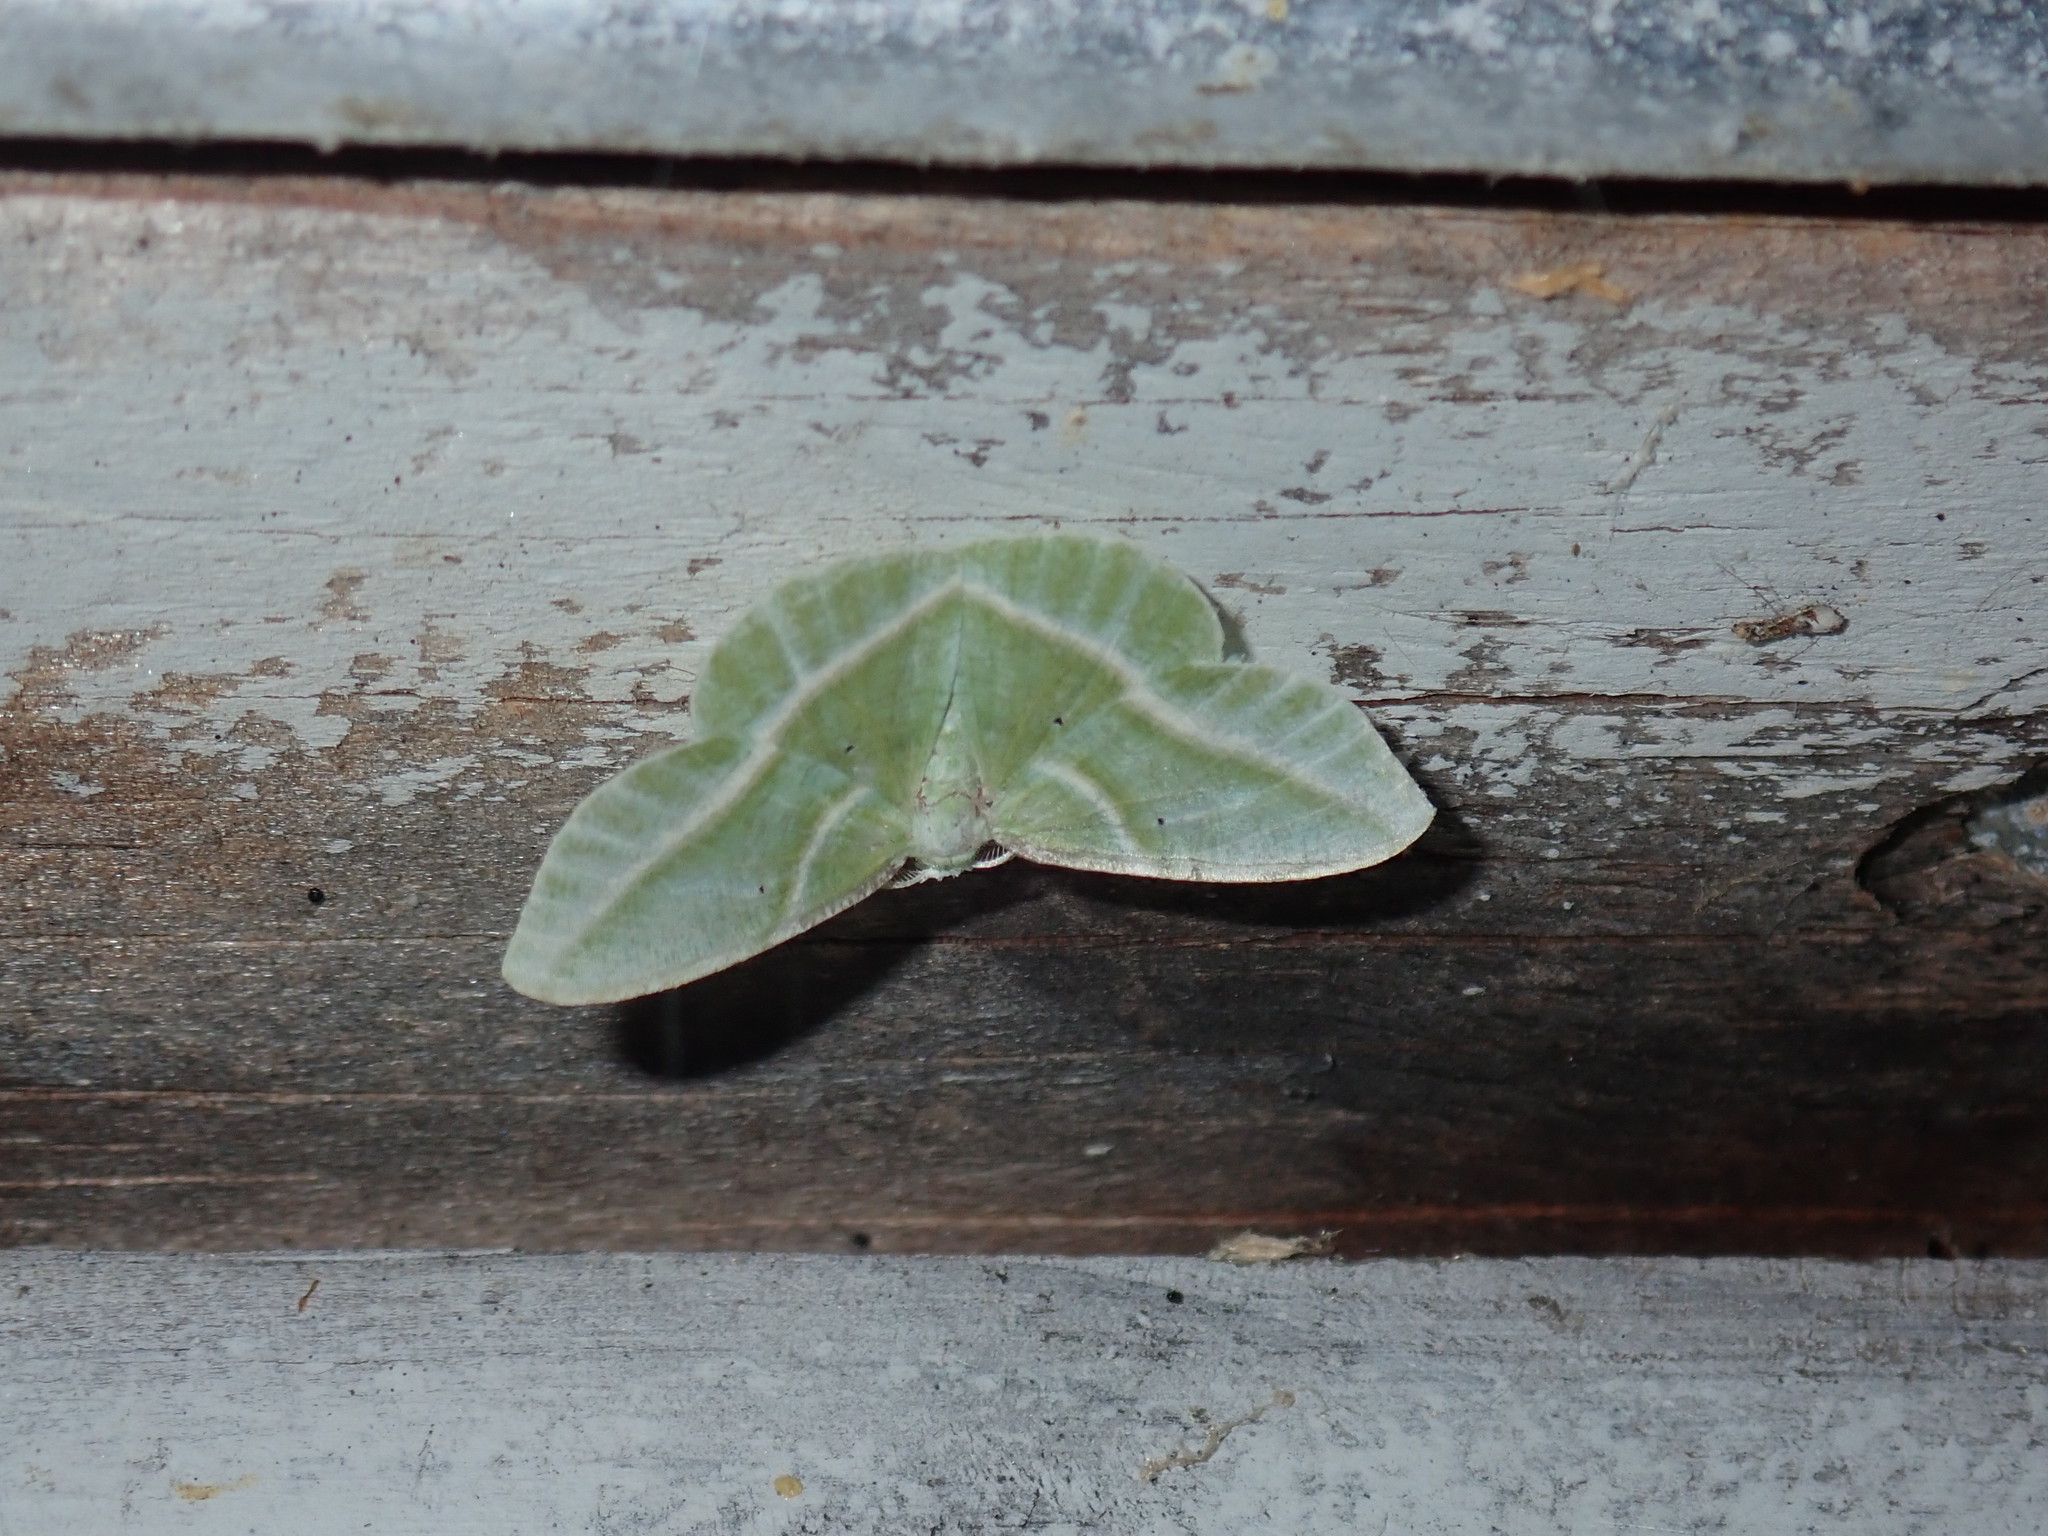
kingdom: Animalia
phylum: Arthropoda
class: Insecta
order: Lepidoptera
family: Geometridae
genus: Dichorda
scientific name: Dichorda iridaria
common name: Showy emerald
